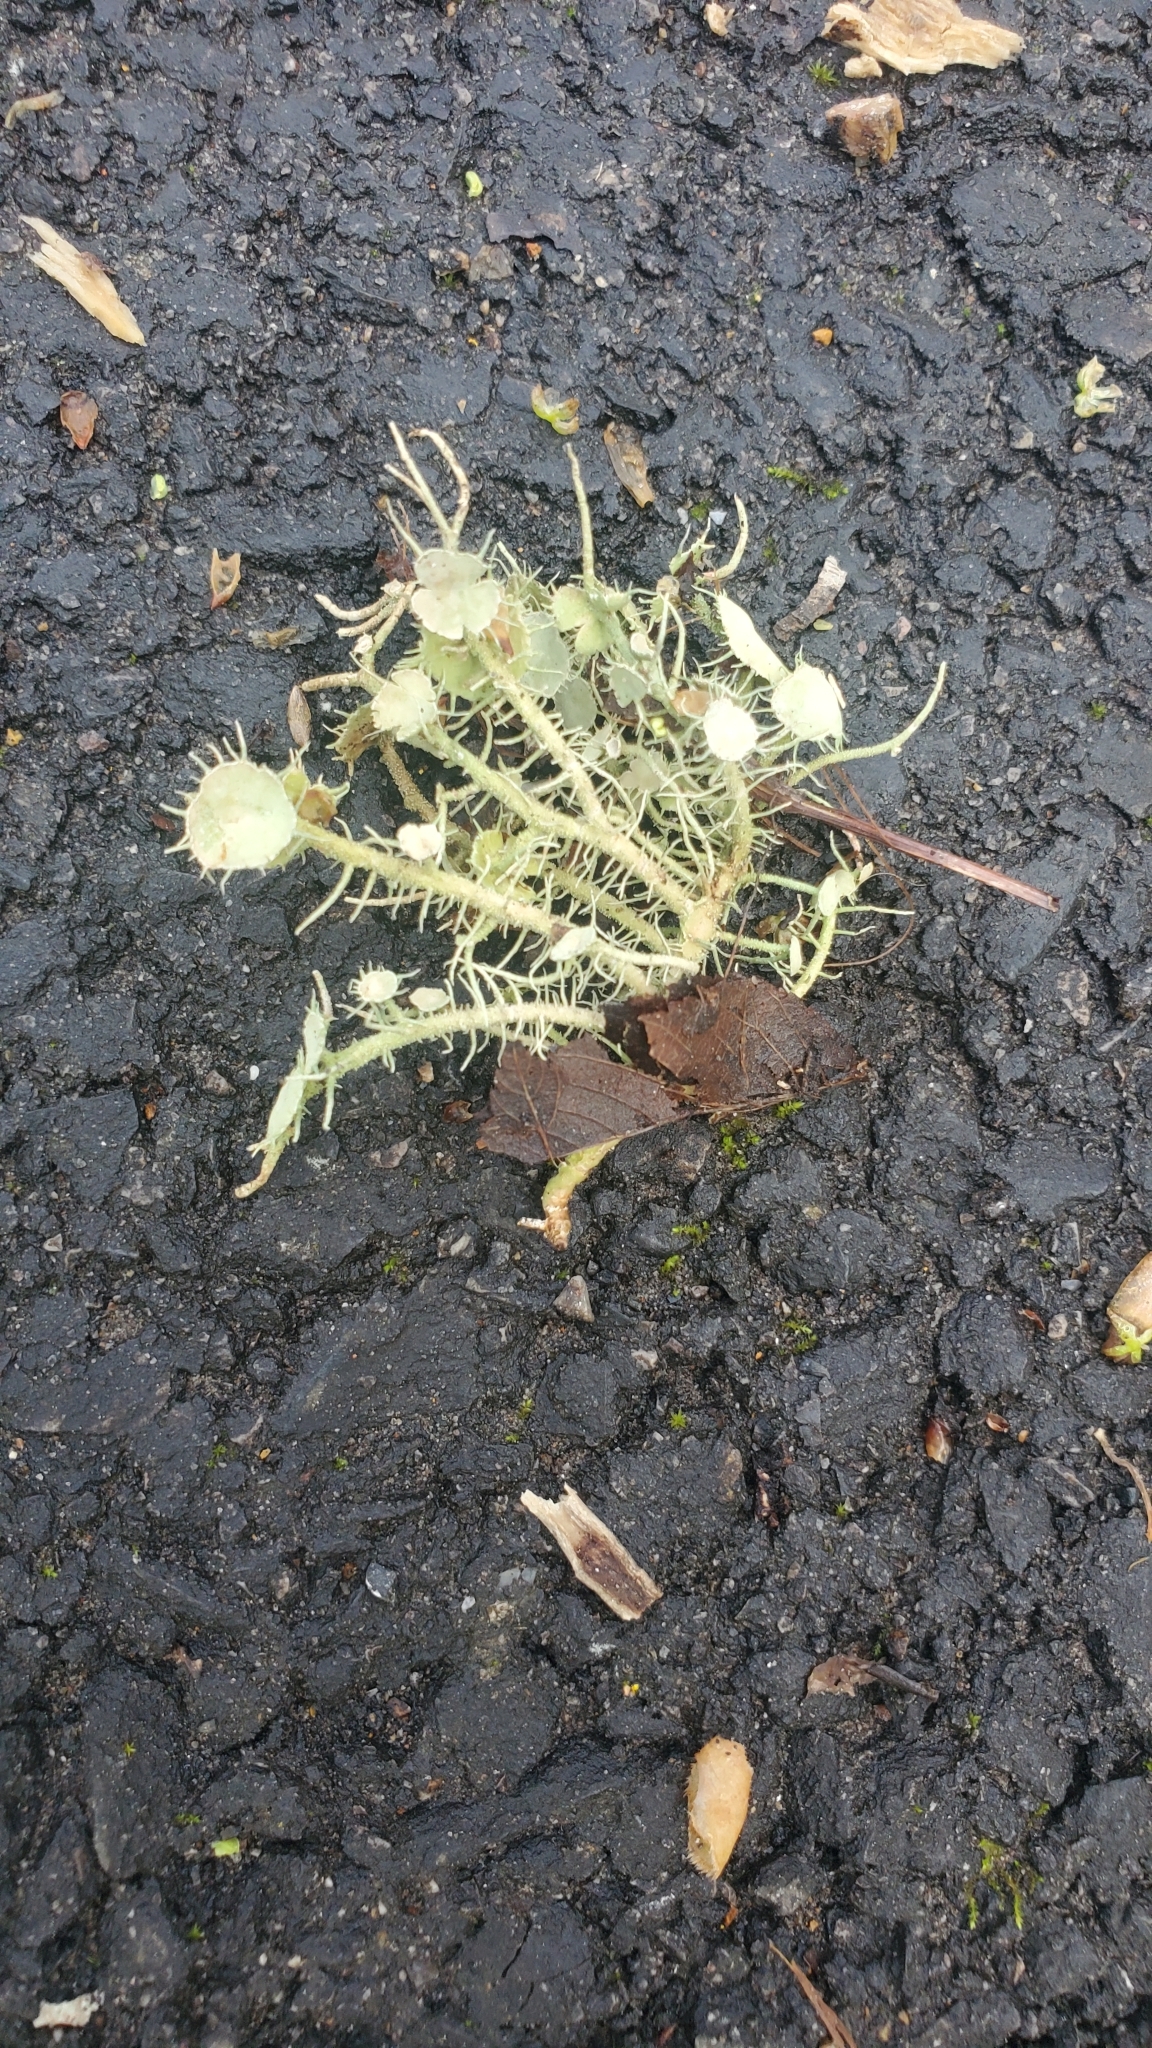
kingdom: Fungi
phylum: Ascomycota
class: Lecanoromycetes
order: Lecanorales
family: Parmeliaceae
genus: Usnea
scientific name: Usnea strigosa
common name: Bushy beard lichen
